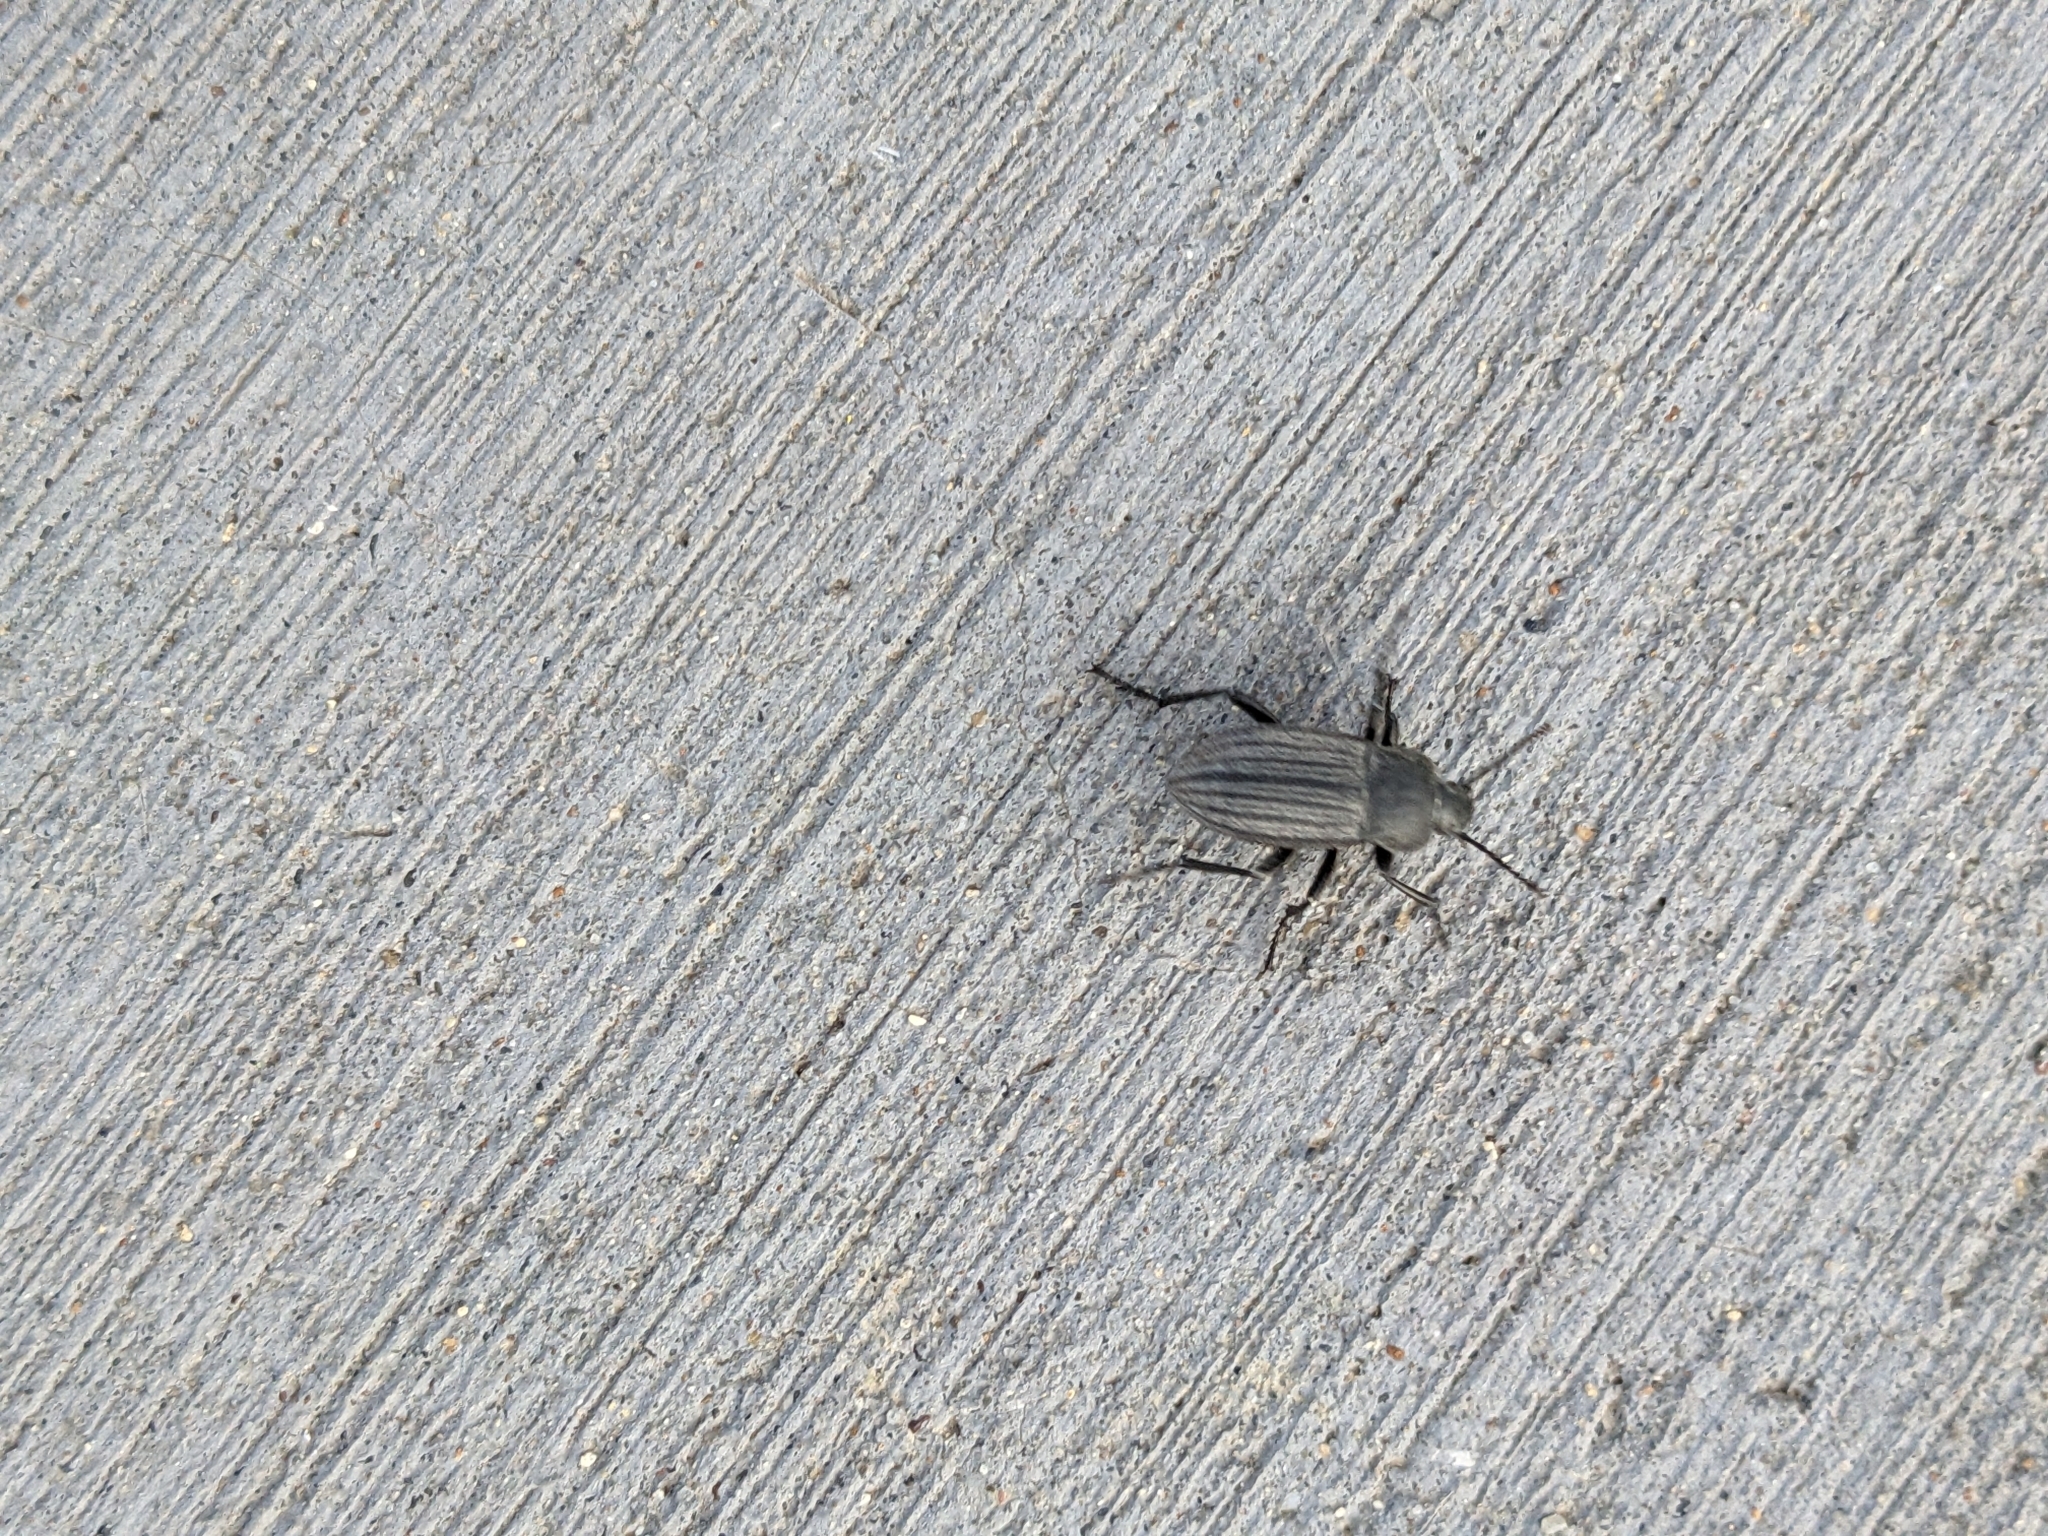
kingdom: Animalia
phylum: Arthropoda
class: Insecta
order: Coleoptera
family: Tenebrionidae
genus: Eleodes
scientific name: Eleodes tricostata
